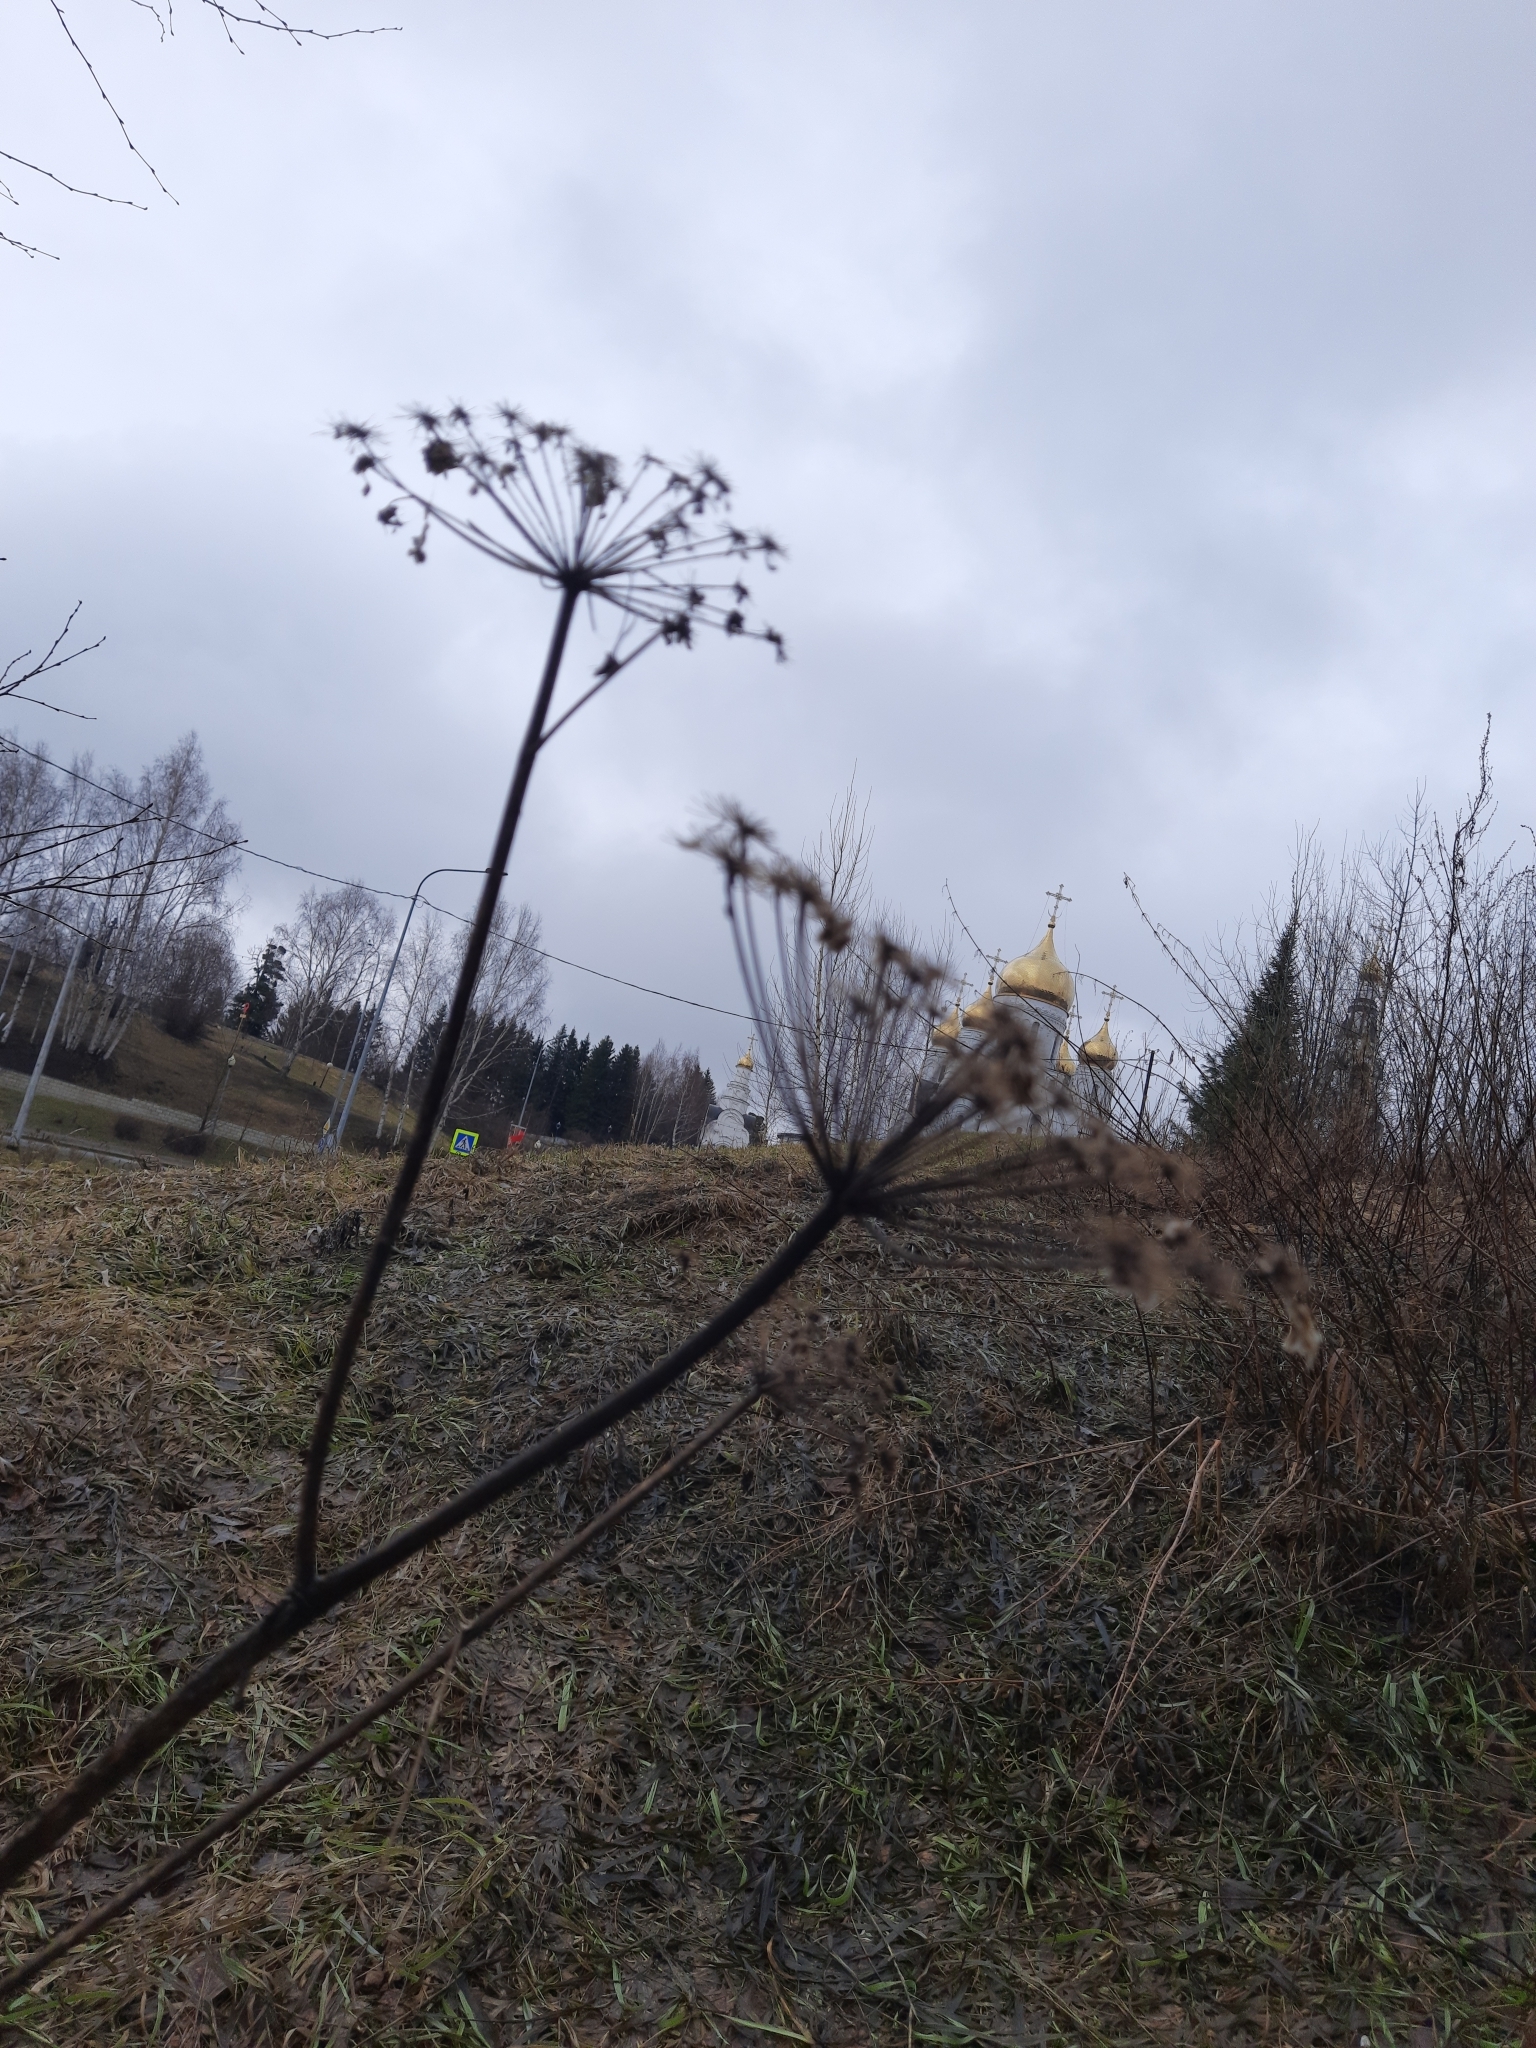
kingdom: Plantae
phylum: Tracheophyta
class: Magnoliopsida
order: Apiales
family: Apiaceae
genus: Angelica
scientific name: Angelica sylvestris
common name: Wild angelica
